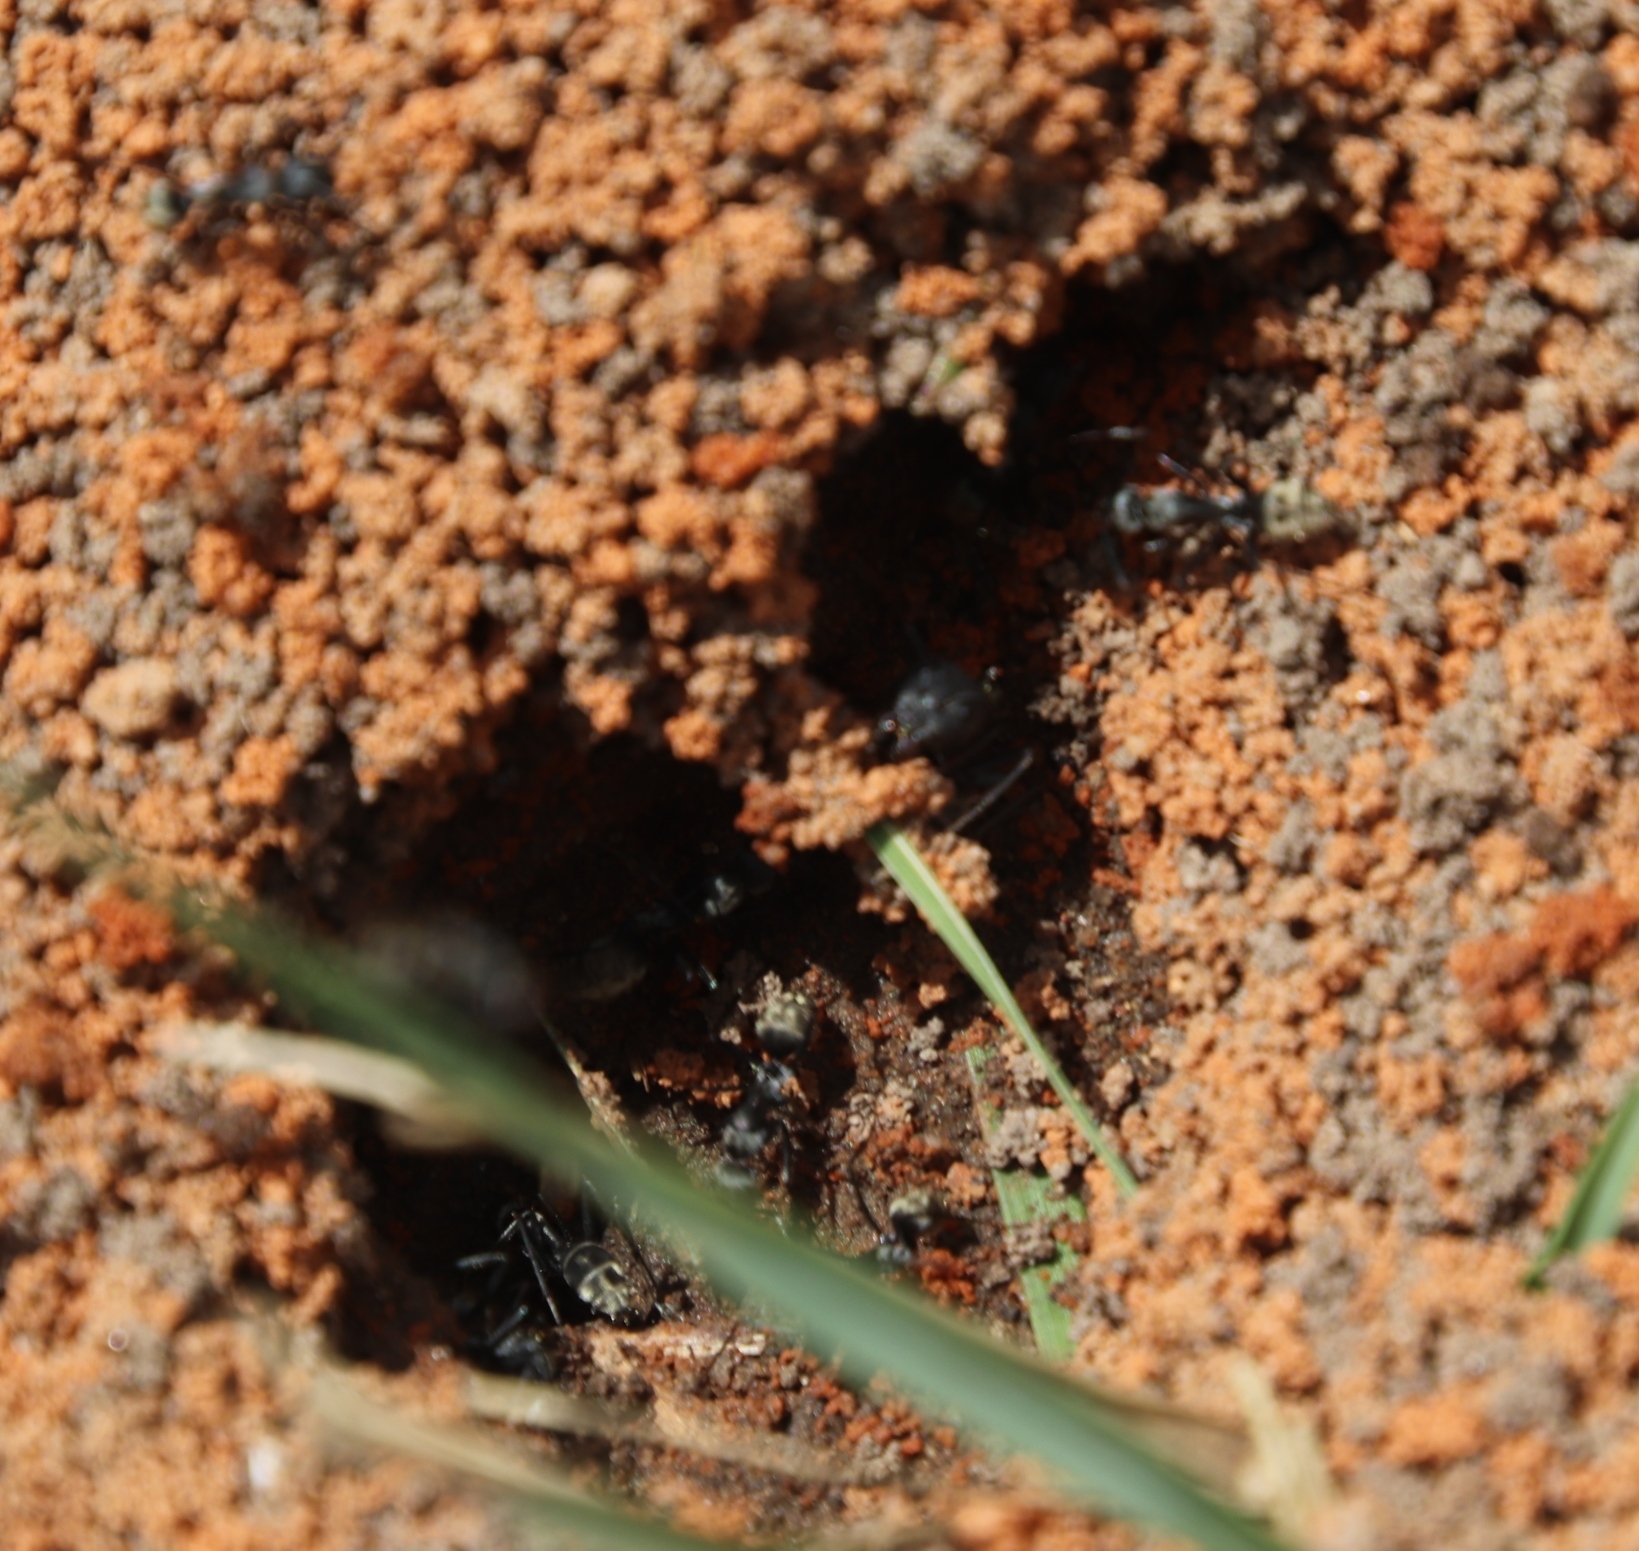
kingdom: Animalia
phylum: Arthropoda
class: Insecta
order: Hymenoptera
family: Formicidae
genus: Camponotus
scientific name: Camponotus cinctellus
